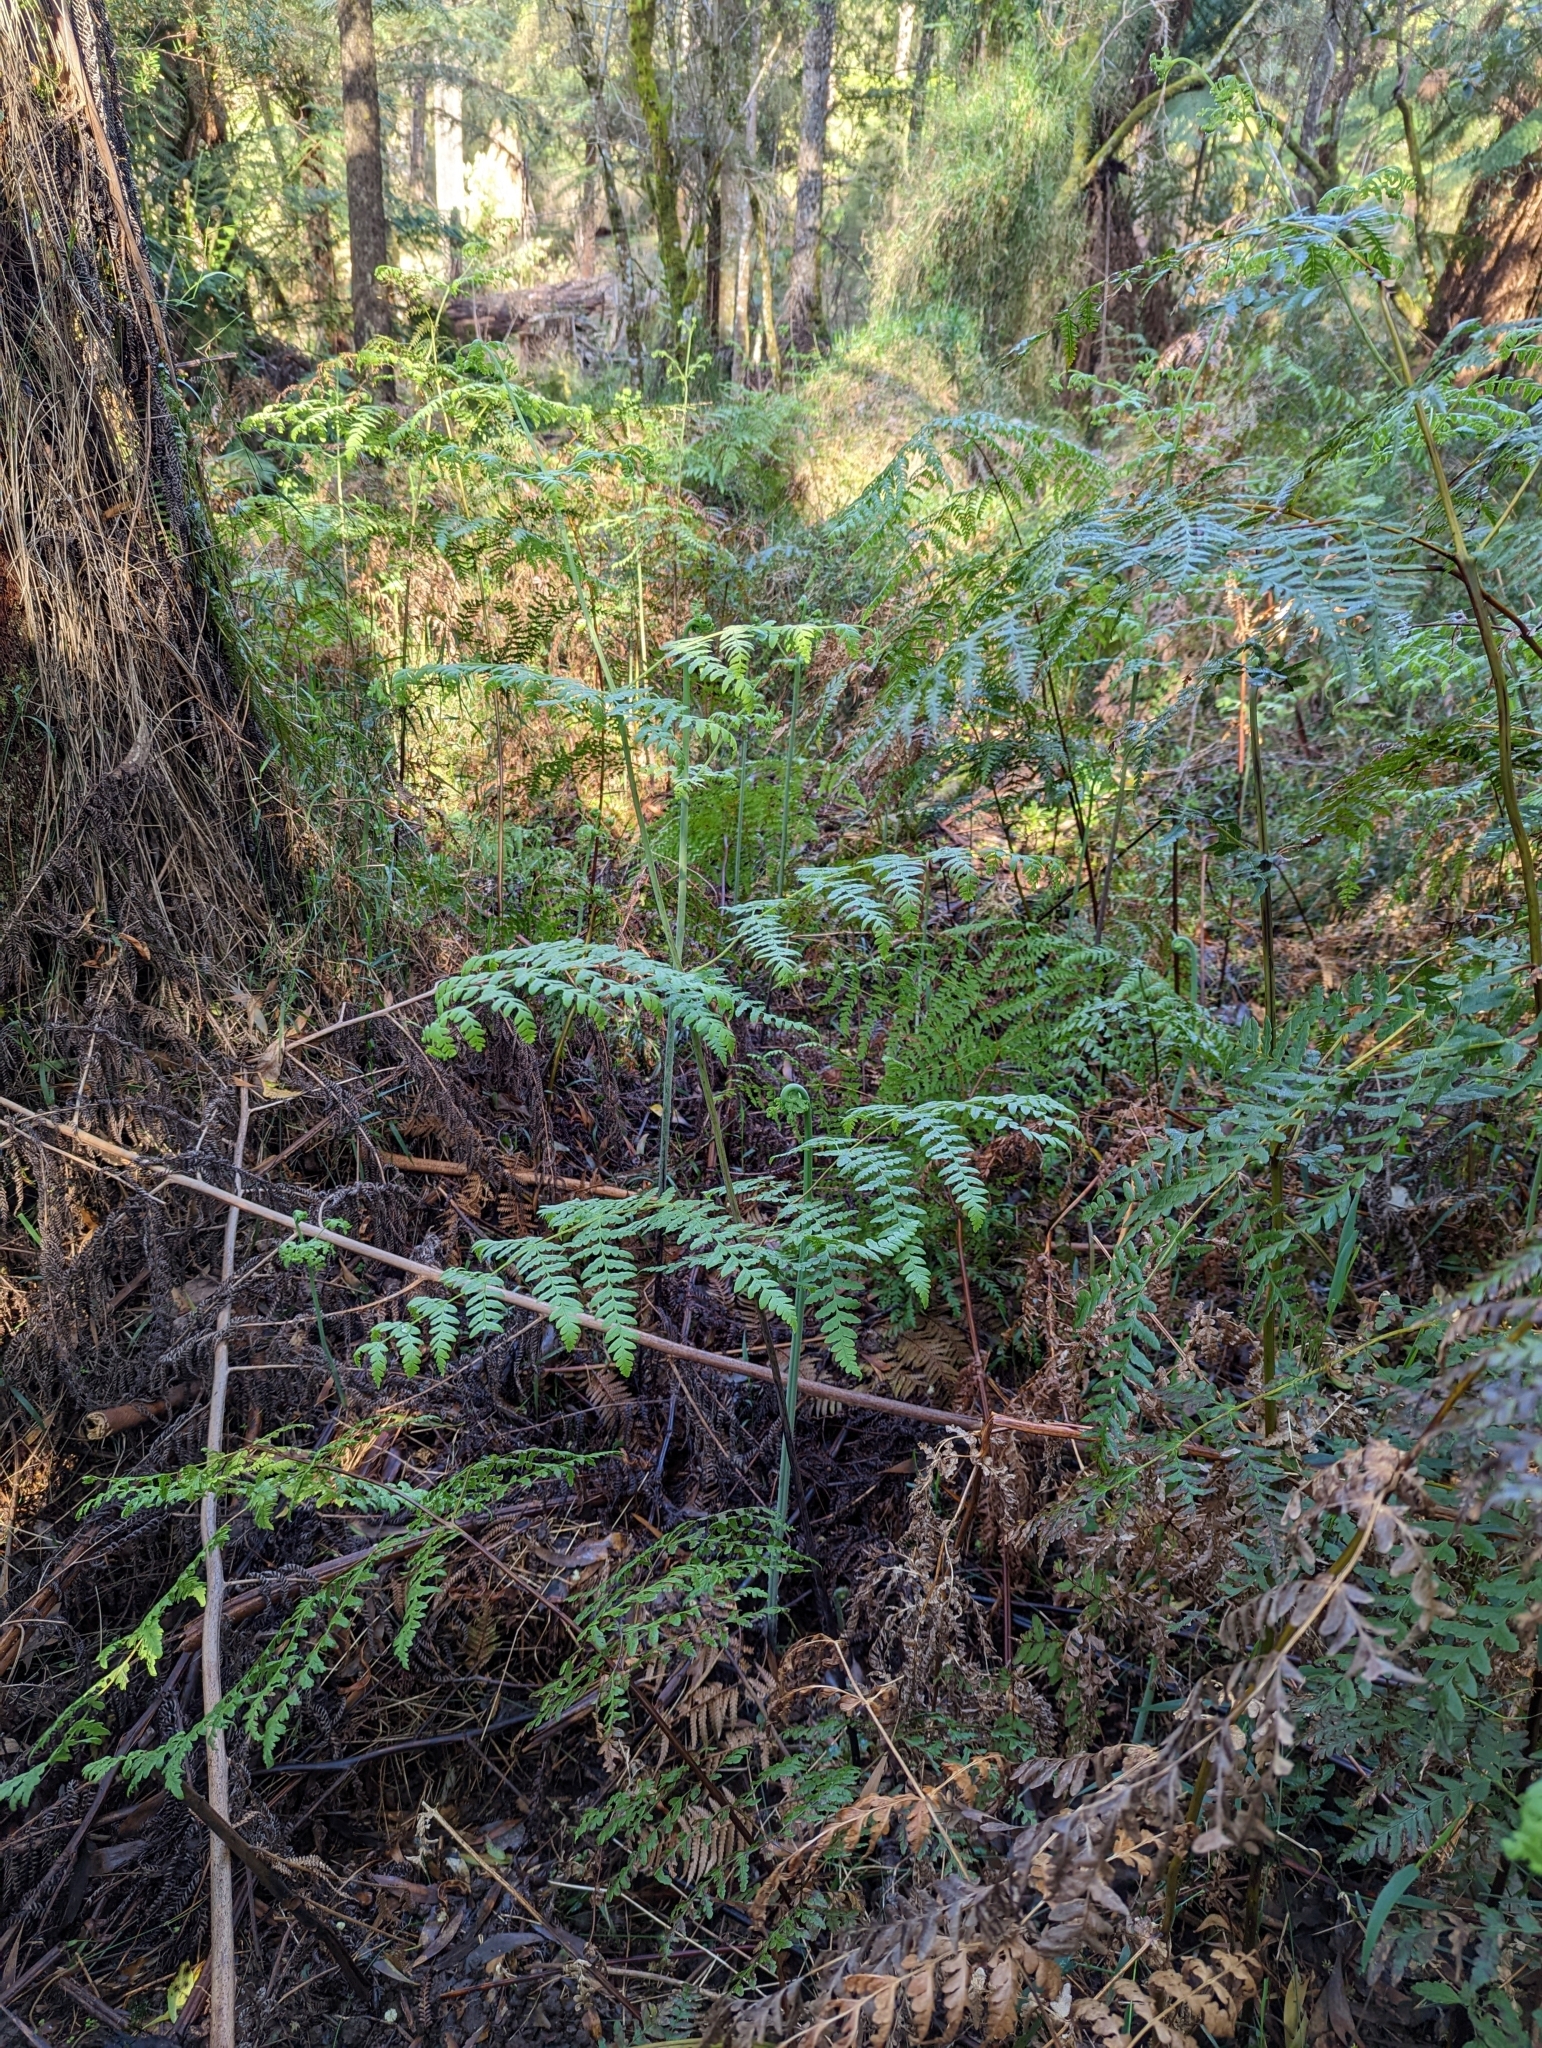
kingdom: Plantae
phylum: Tracheophyta
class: Polypodiopsida
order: Polypodiales
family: Dennstaedtiaceae
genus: Pteridium
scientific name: Pteridium esculentum
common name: Bracken fern
